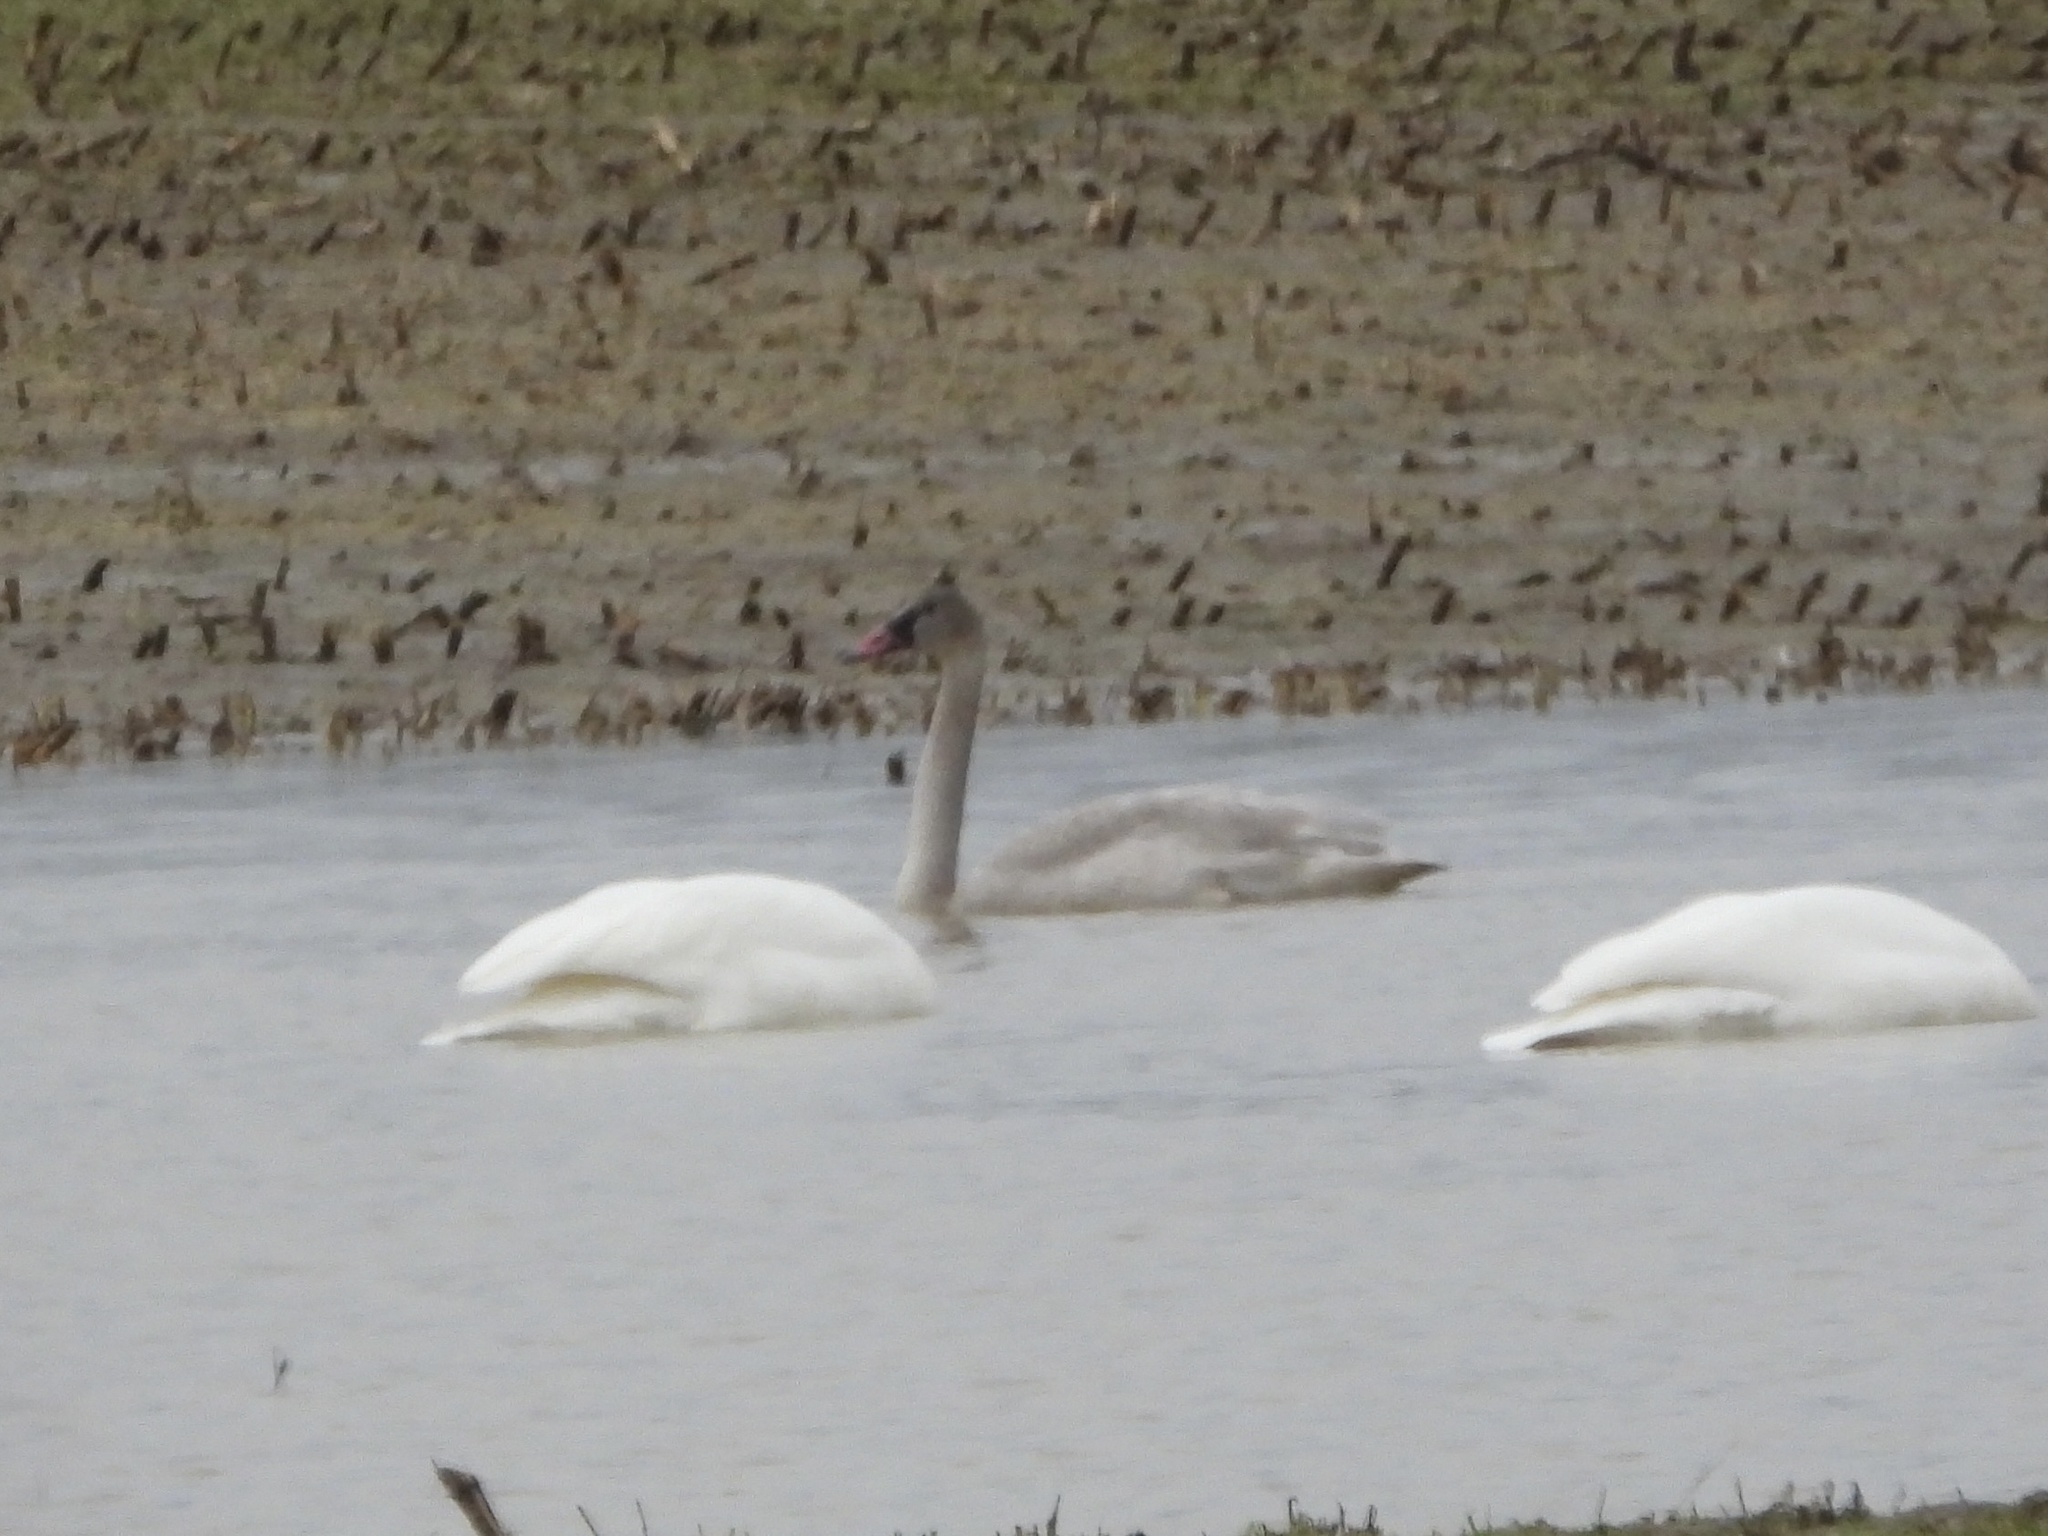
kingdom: Animalia
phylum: Chordata
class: Aves
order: Anseriformes
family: Anatidae
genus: Cygnus
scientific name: Cygnus buccinator
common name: Trumpeter swan
